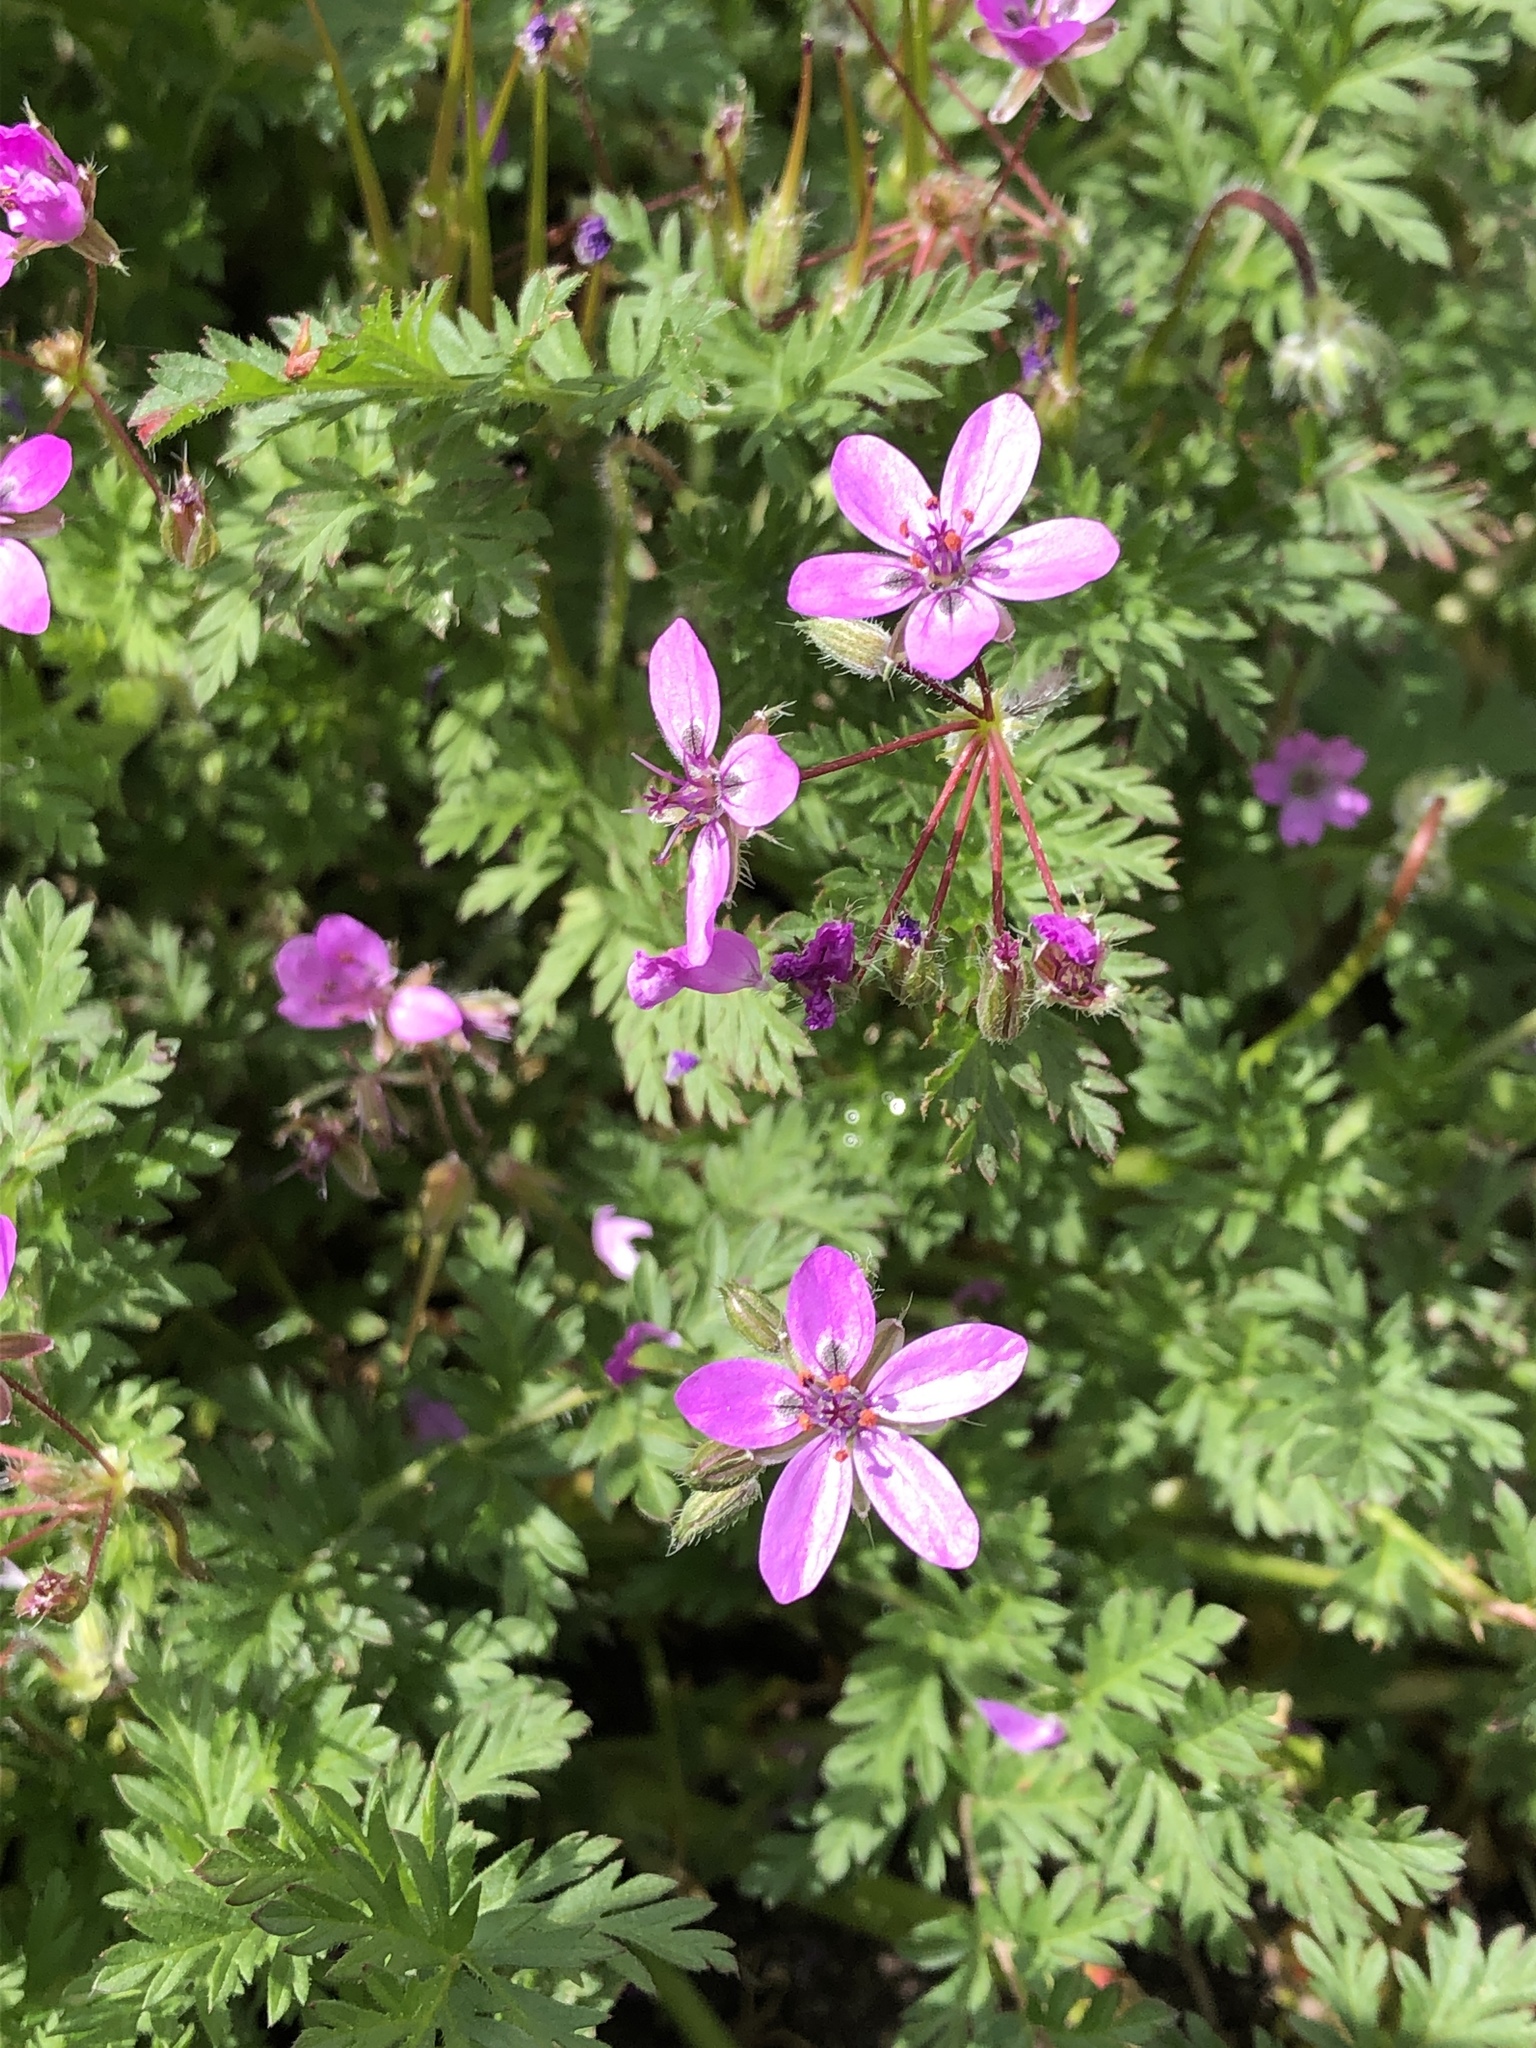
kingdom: Plantae
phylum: Tracheophyta
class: Magnoliopsida
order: Geraniales
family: Geraniaceae
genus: Erodium
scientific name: Erodium cicutarium
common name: Common stork's-bill
